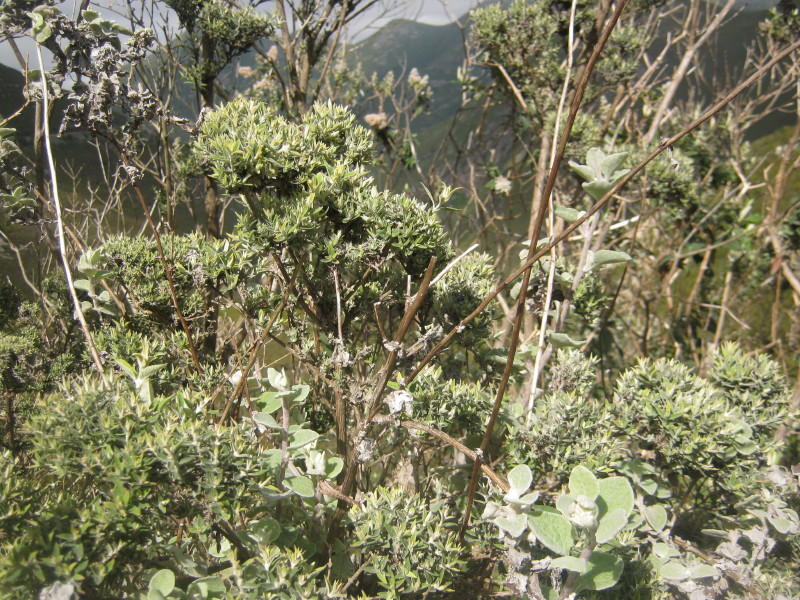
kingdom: Plantae
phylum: Tracheophyta
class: Magnoliopsida
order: Lamiales
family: Scrophulariaceae
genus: Buddleja
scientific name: Buddleja salviifolia
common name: Sagewood
